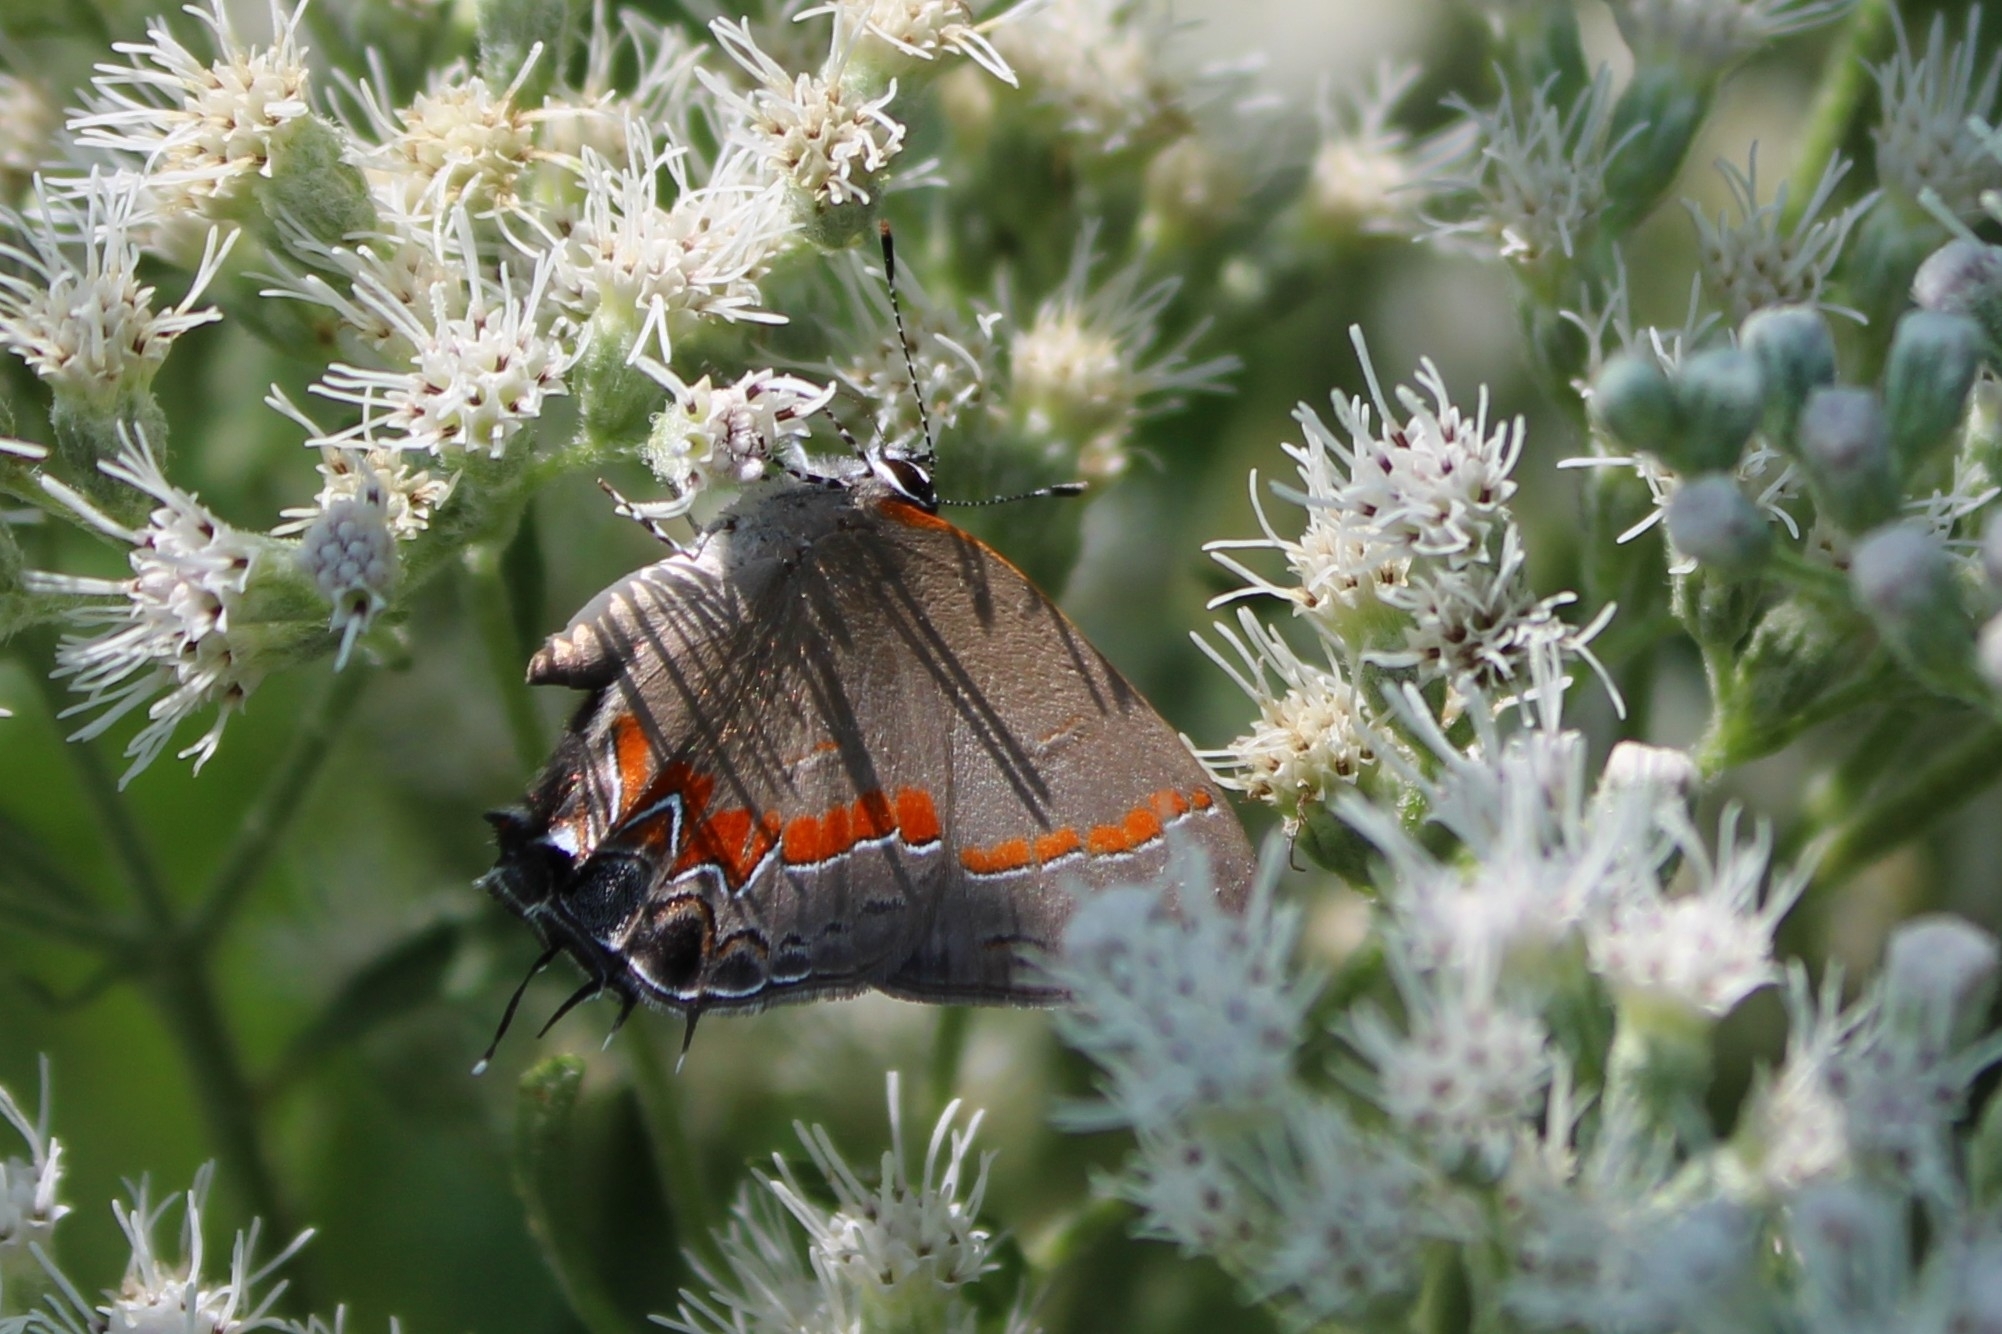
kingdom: Animalia
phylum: Arthropoda
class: Insecta
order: Lepidoptera
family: Lycaenidae
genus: Calycopis
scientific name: Calycopis cecrops
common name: Red-banded hairstreak
